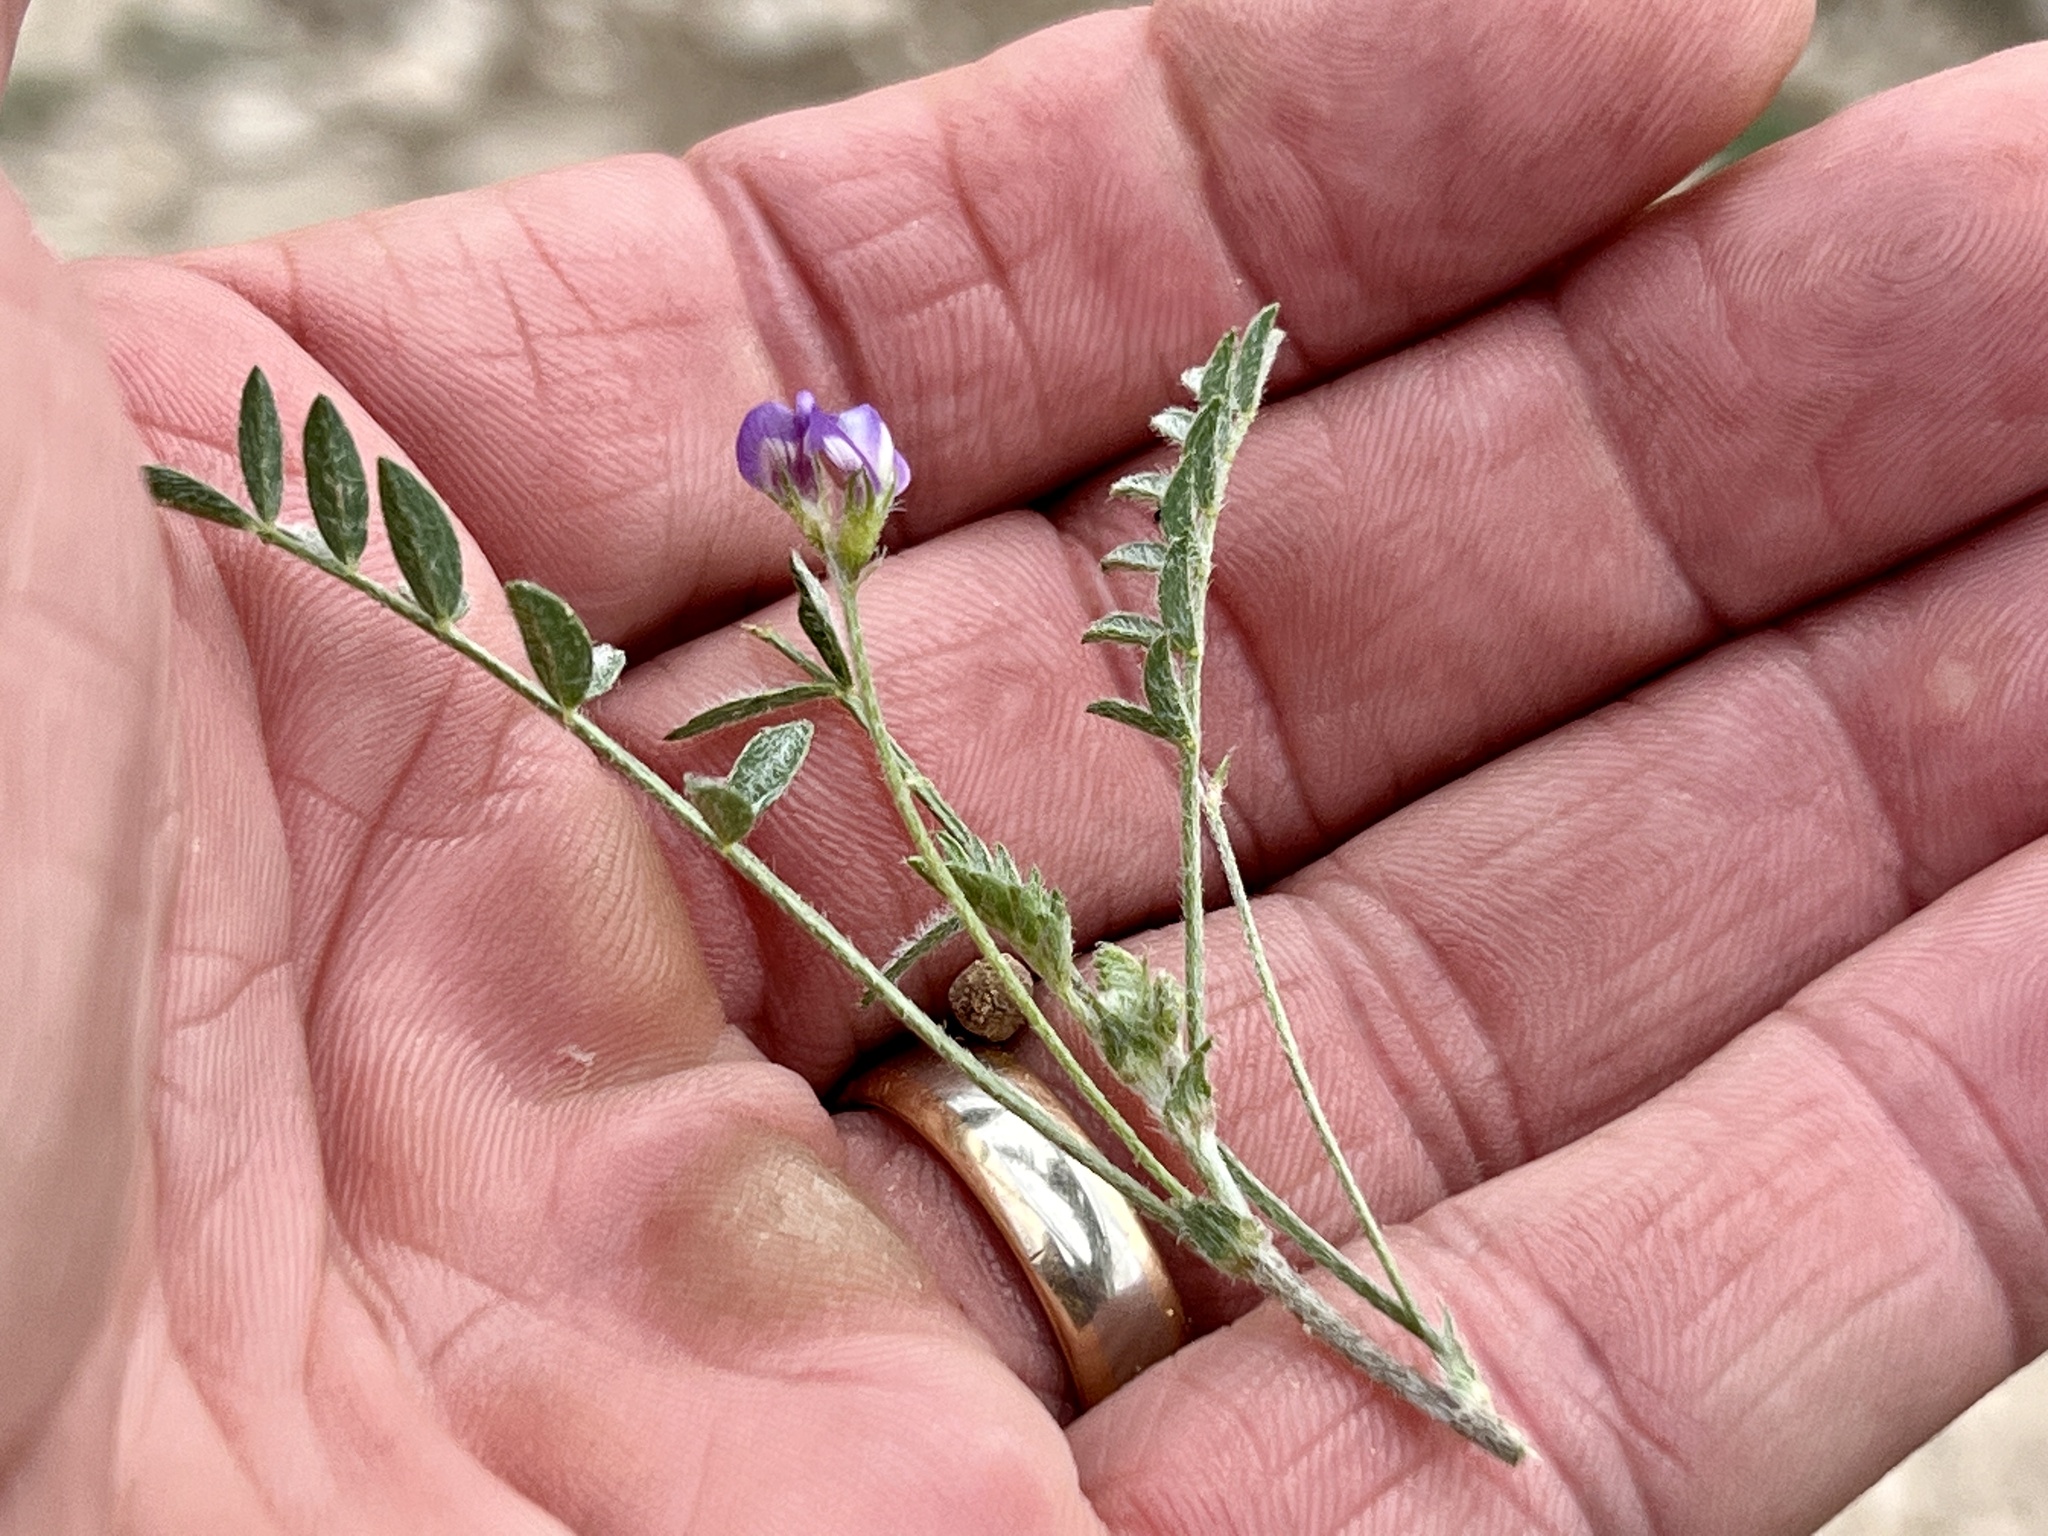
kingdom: Plantae
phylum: Tracheophyta
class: Magnoliopsida
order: Fabales
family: Fabaceae
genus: Astragalus
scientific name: Astragalus nuttallianus
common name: Smallflowered milkvetch
